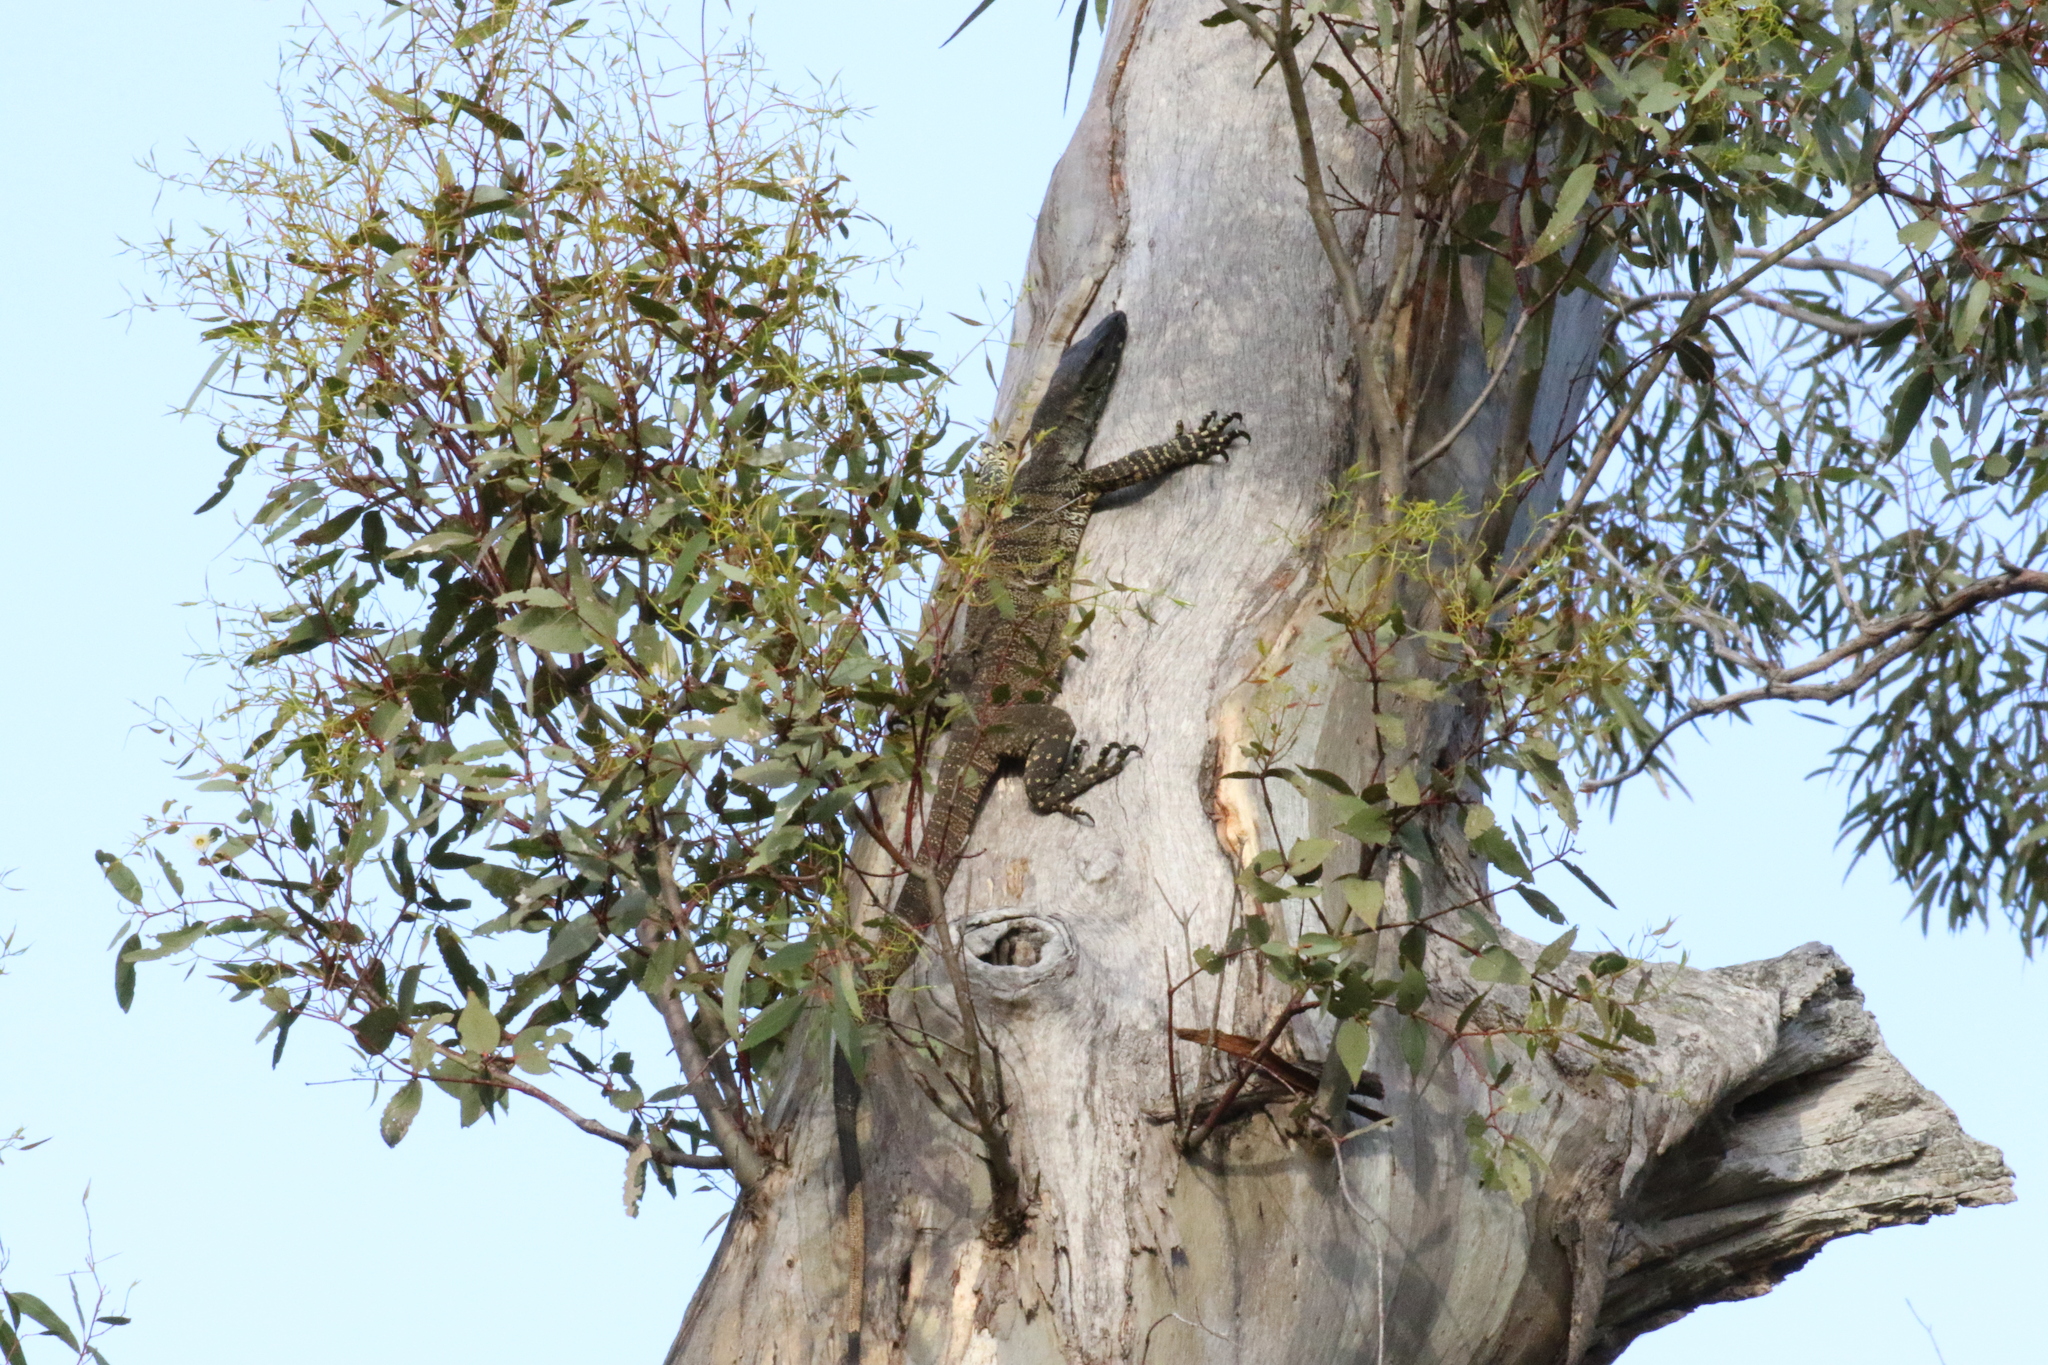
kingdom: Animalia
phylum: Chordata
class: Squamata
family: Varanidae
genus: Varanus
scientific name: Varanus varius
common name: Lace monitor
